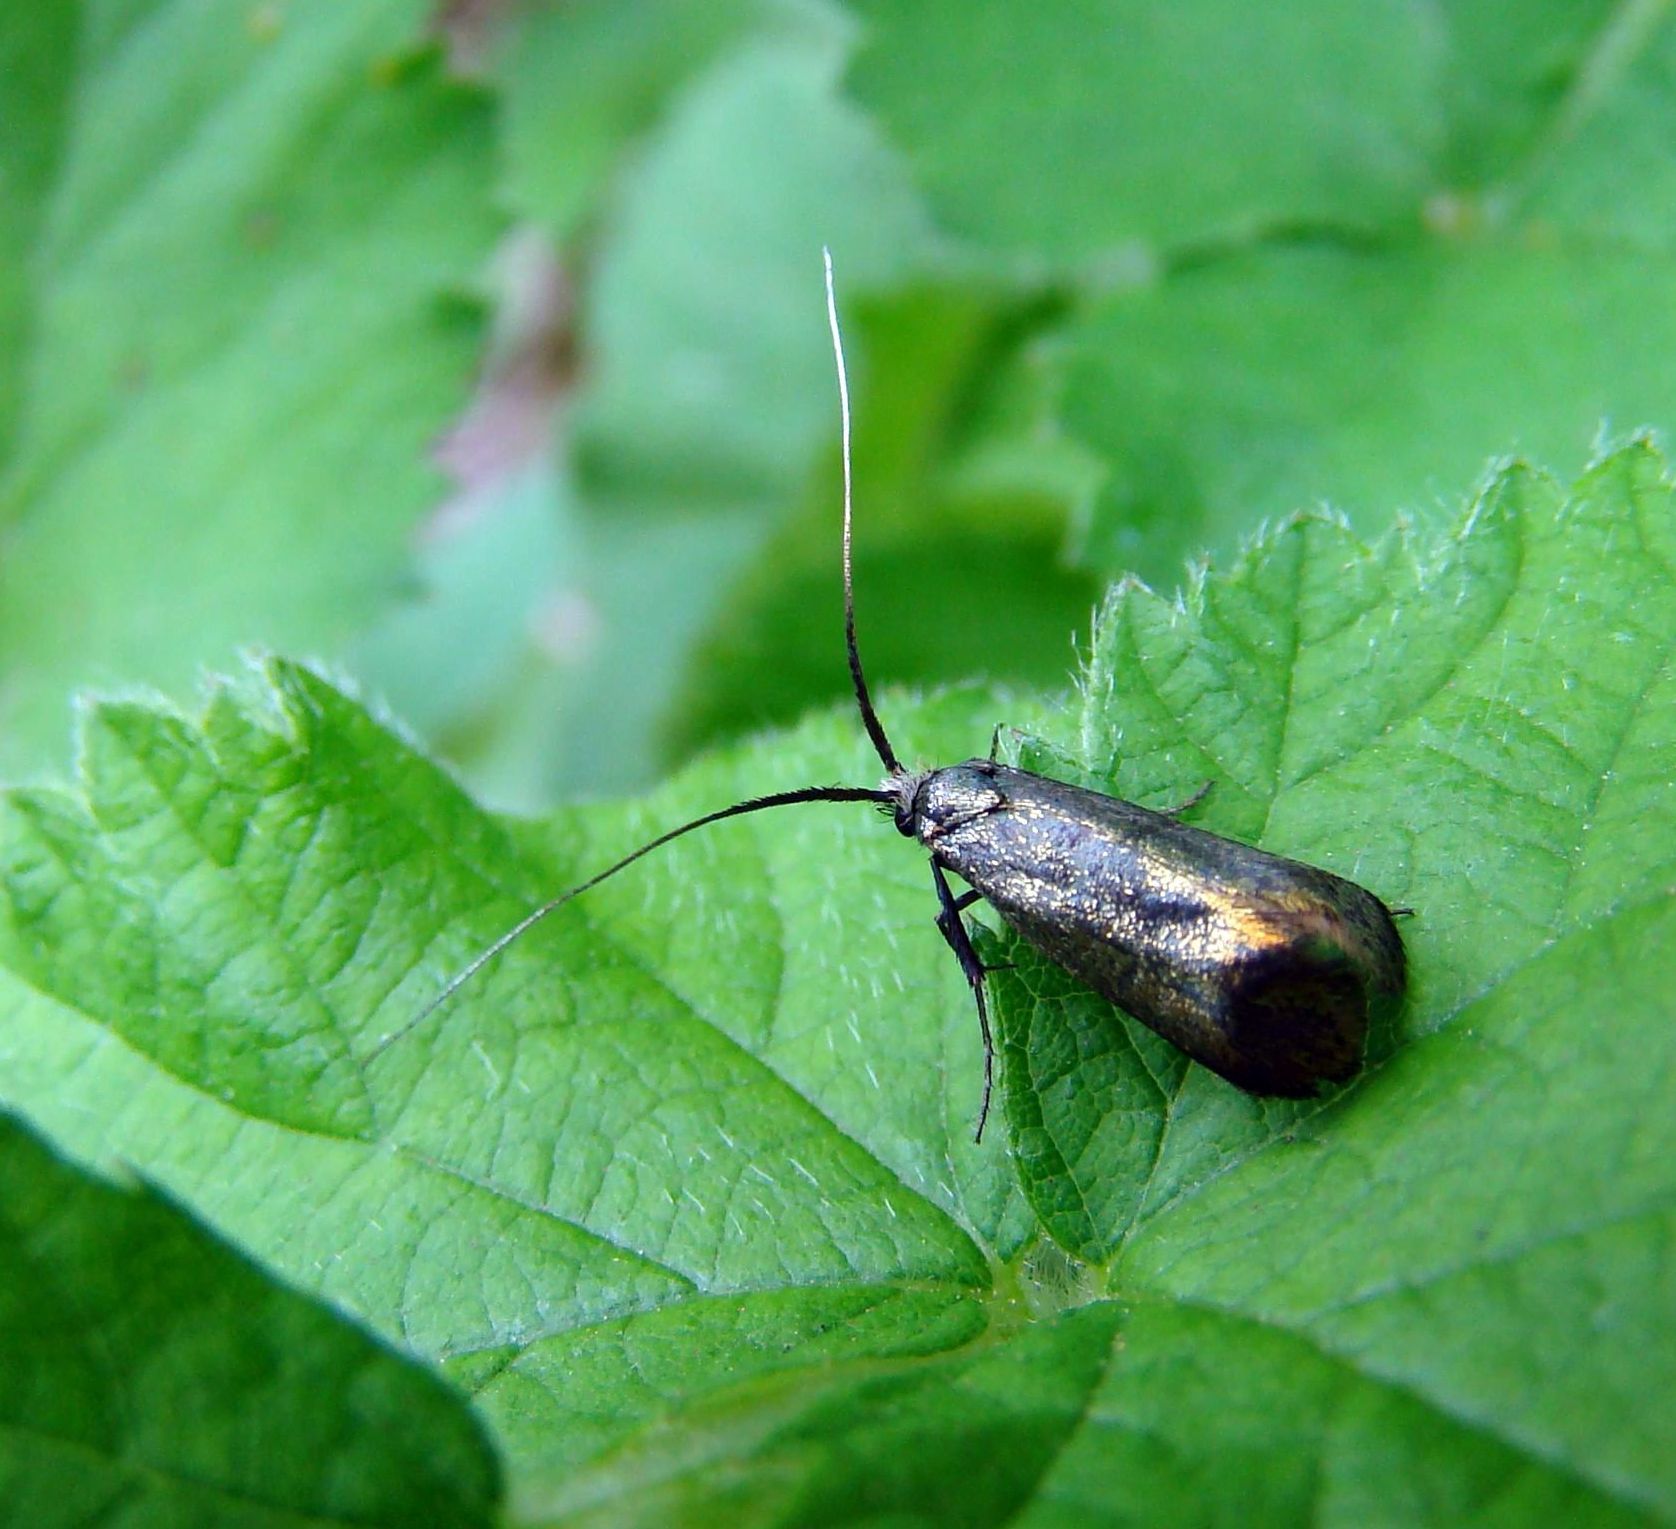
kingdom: Animalia
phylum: Arthropoda
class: Insecta
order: Lepidoptera
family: Adelidae
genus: Adela
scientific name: Adela viridella
